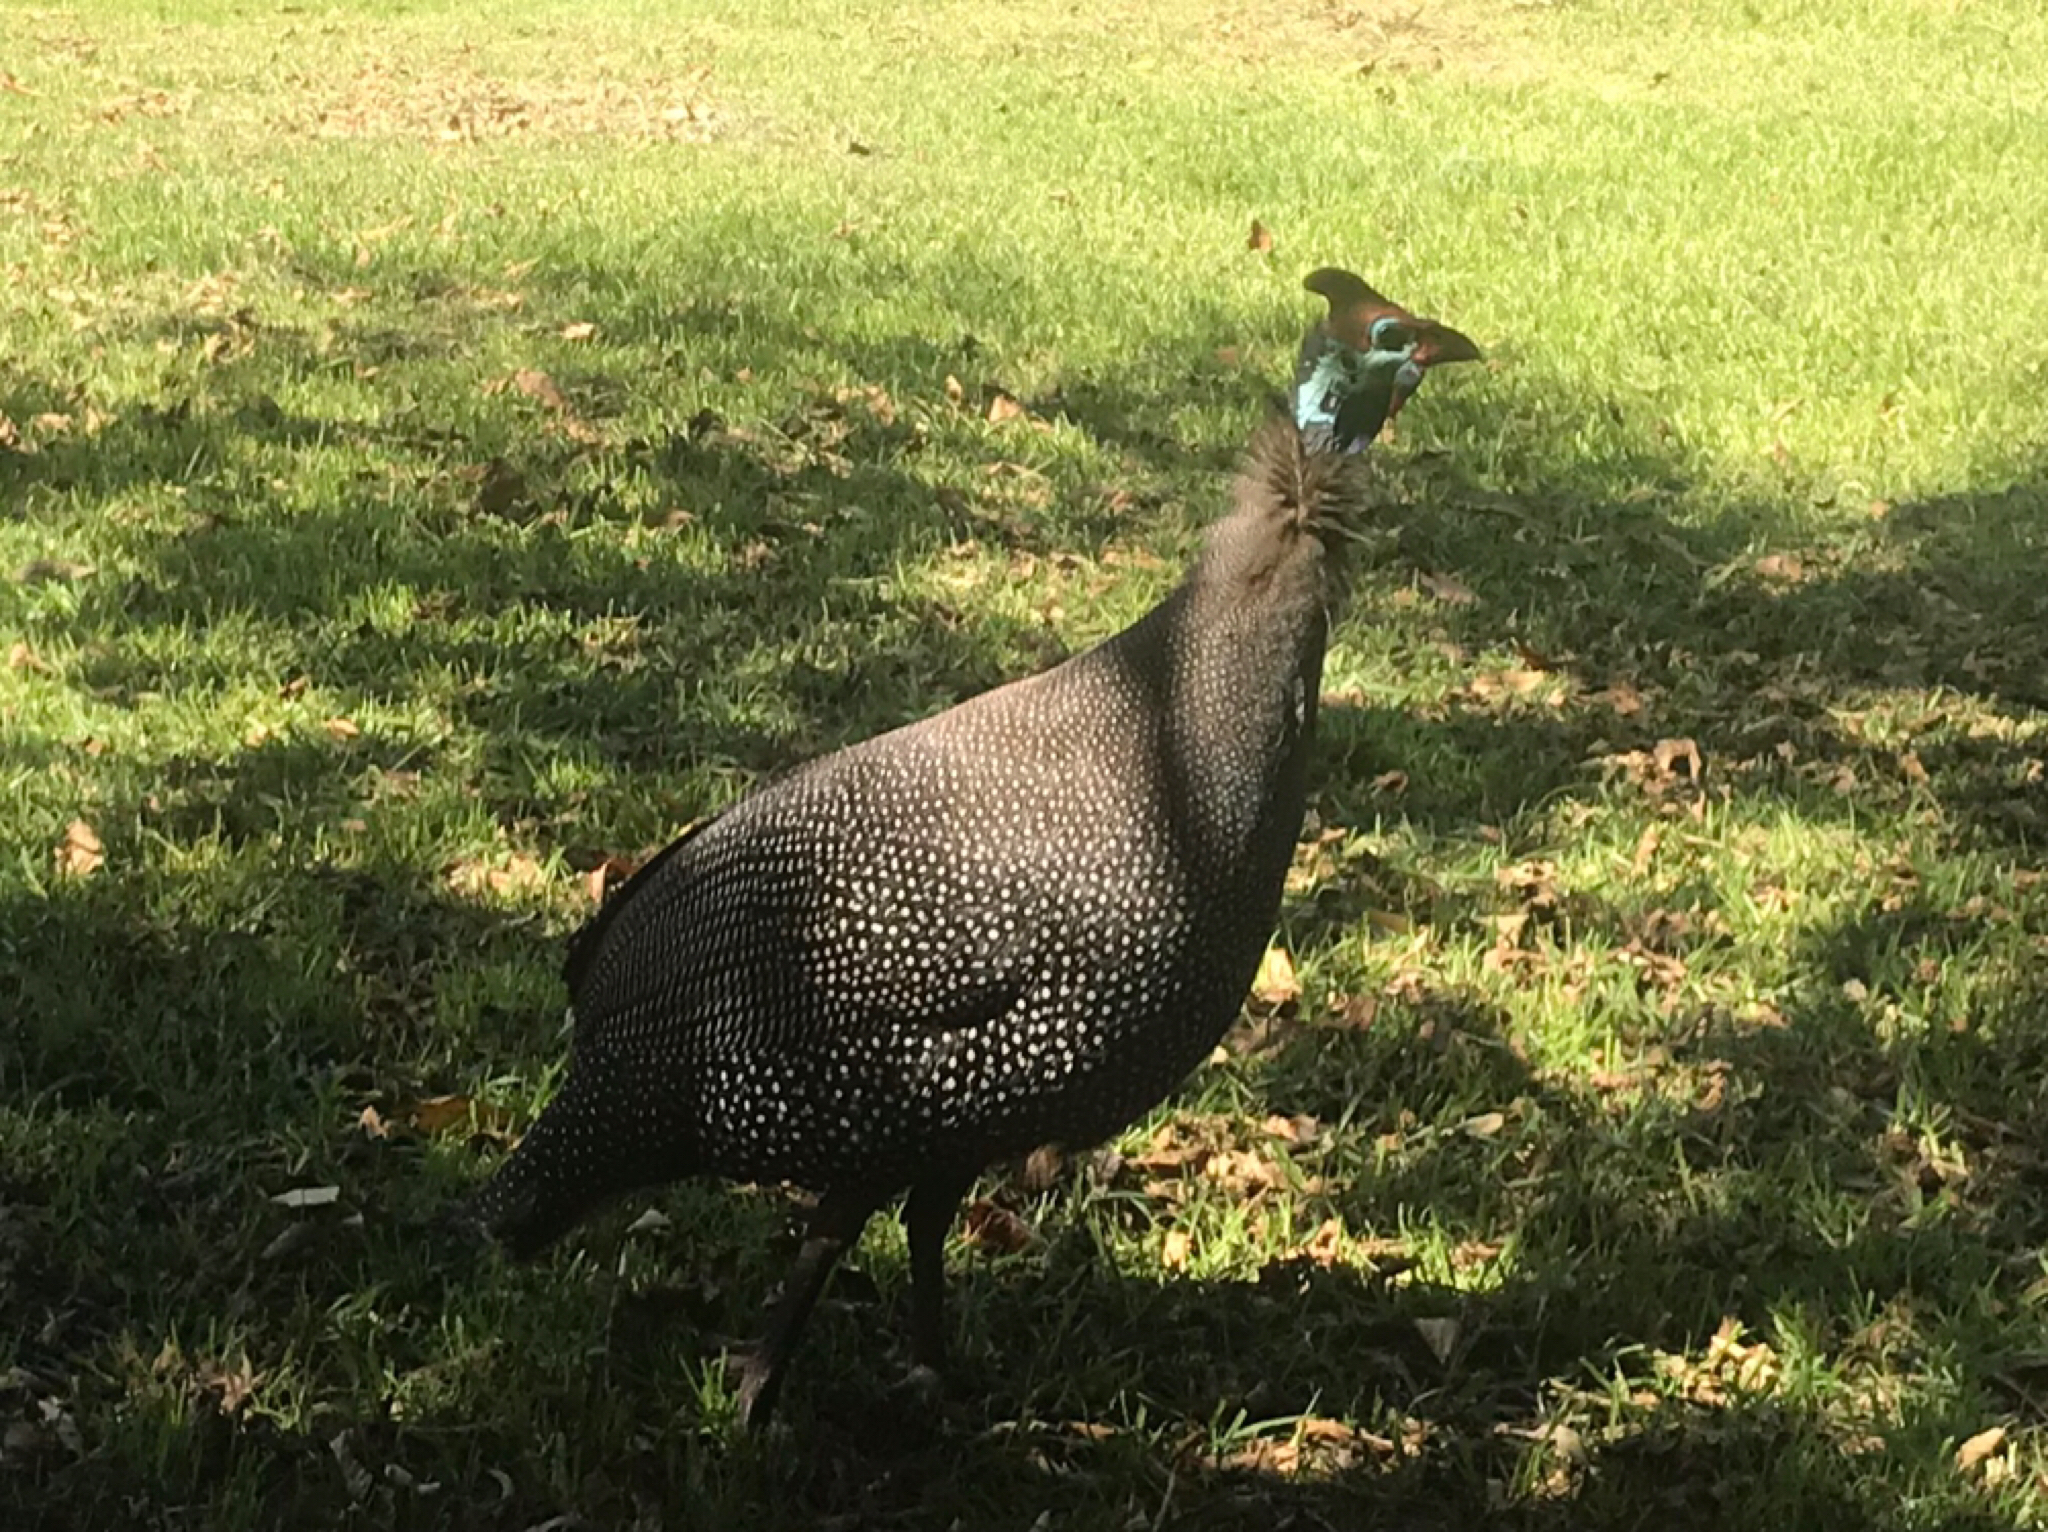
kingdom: Animalia
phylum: Chordata
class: Aves
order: Galliformes
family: Numididae
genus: Numida
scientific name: Numida meleagris
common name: Helmeted guineafowl
